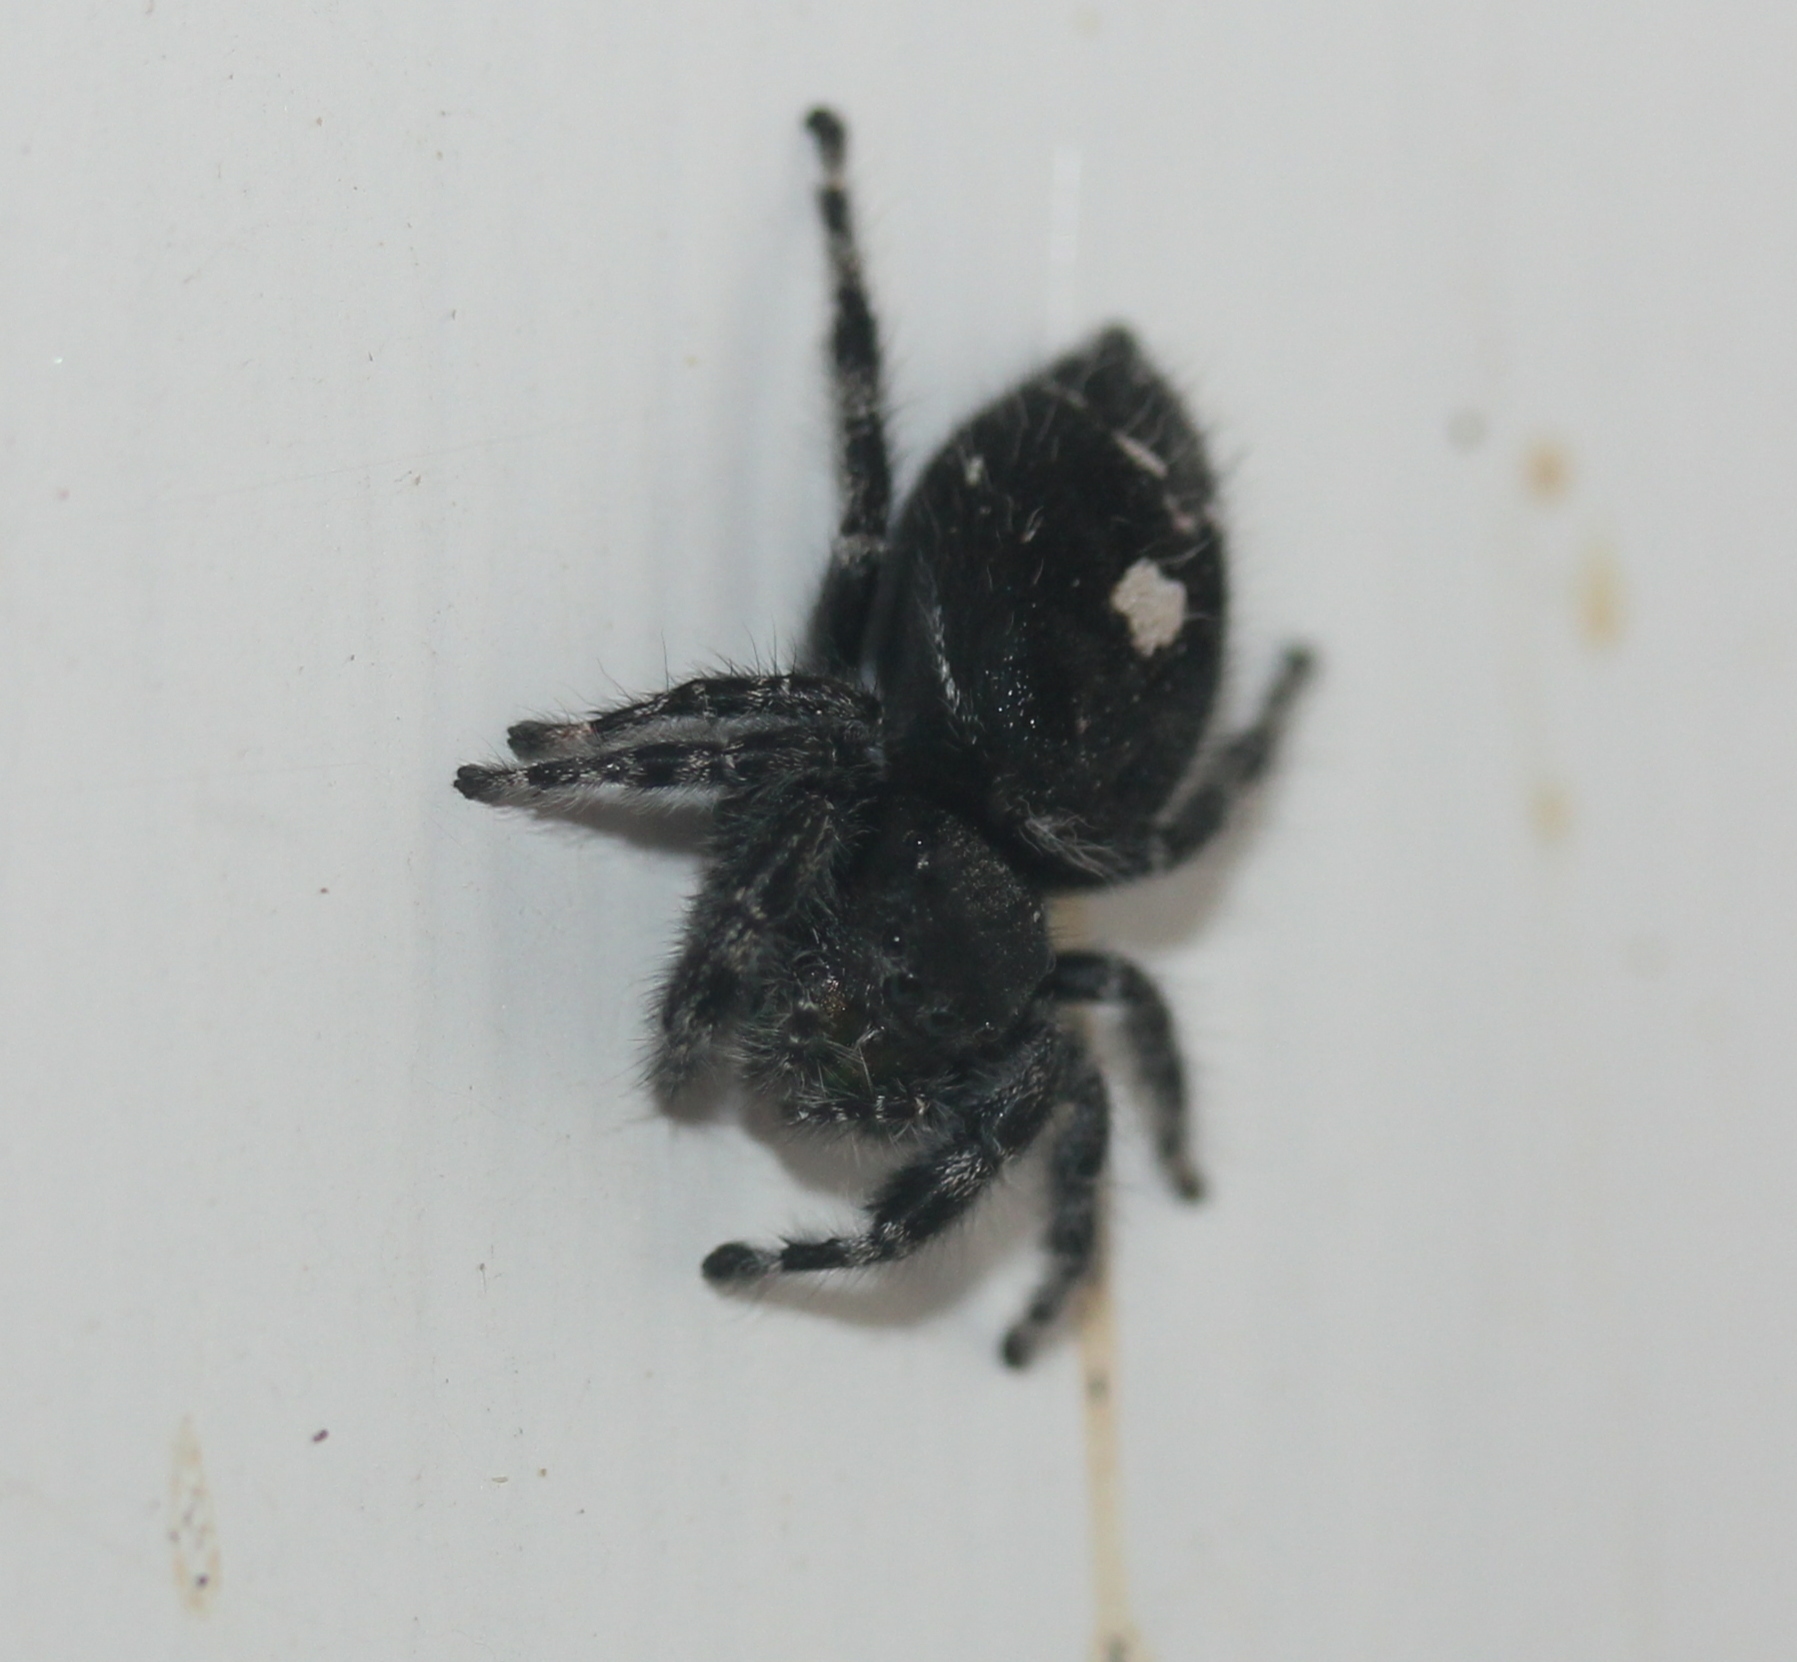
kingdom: Animalia
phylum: Arthropoda
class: Arachnida
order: Araneae
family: Salticidae
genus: Phidippus
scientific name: Phidippus audax
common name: Bold jumper
